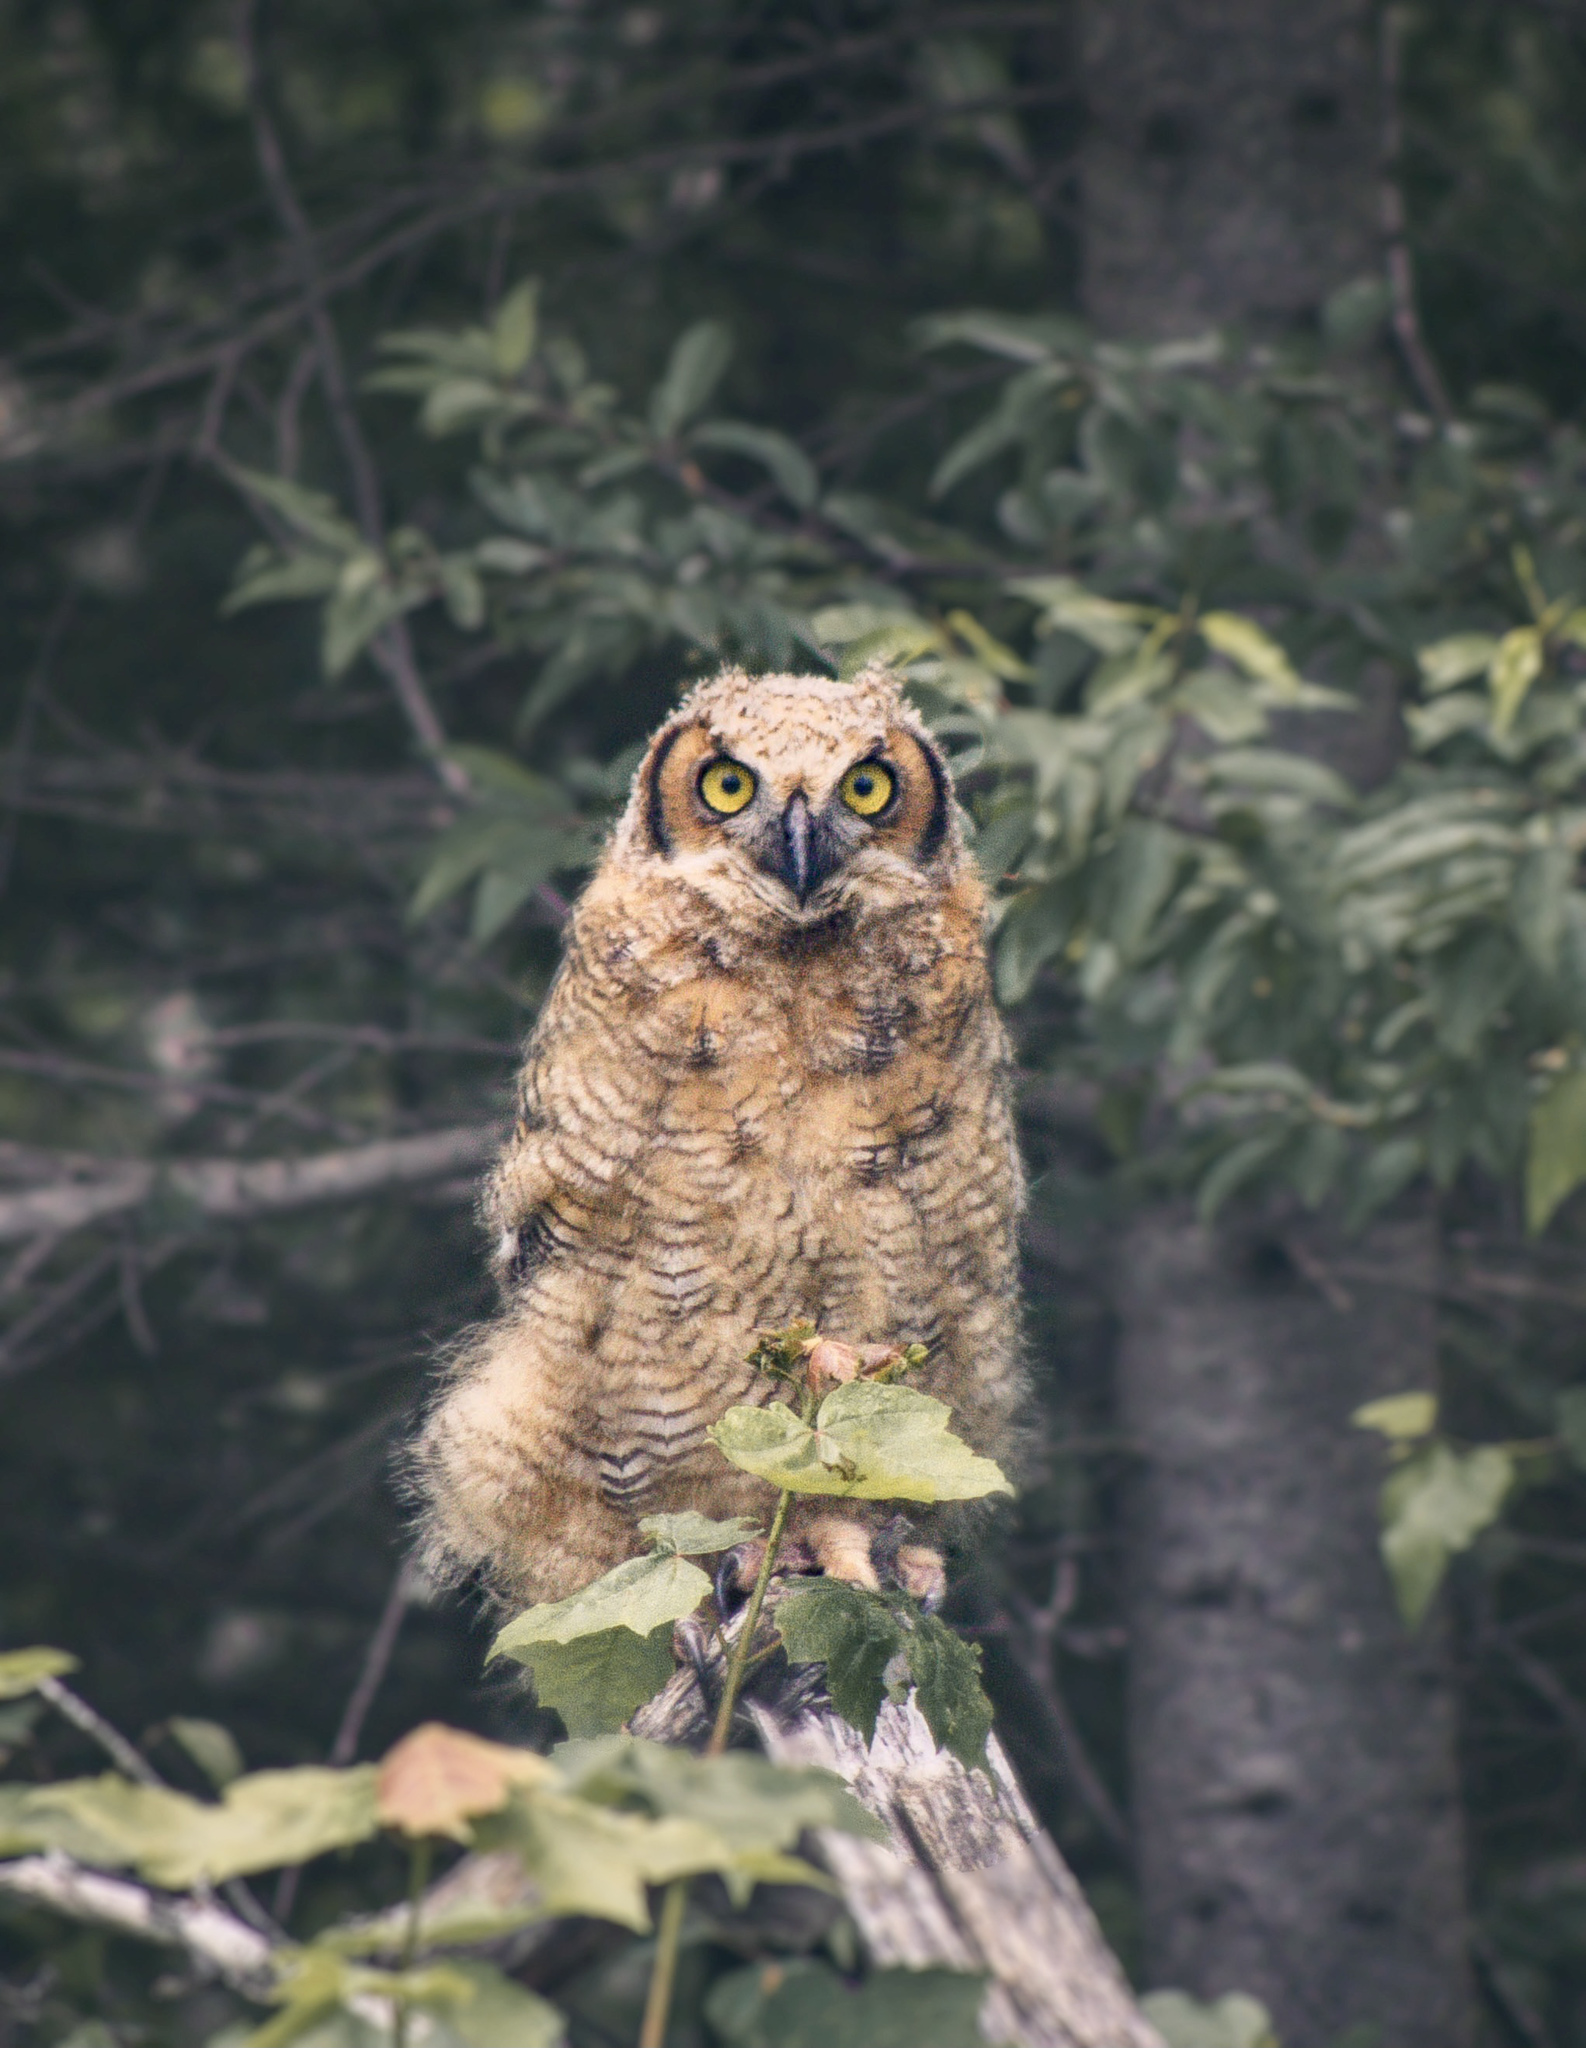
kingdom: Animalia
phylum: Chordata
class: Aves
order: Strigiformes
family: Strigidae
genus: Bubo
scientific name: Bubo virginianus
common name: Great horned owl
